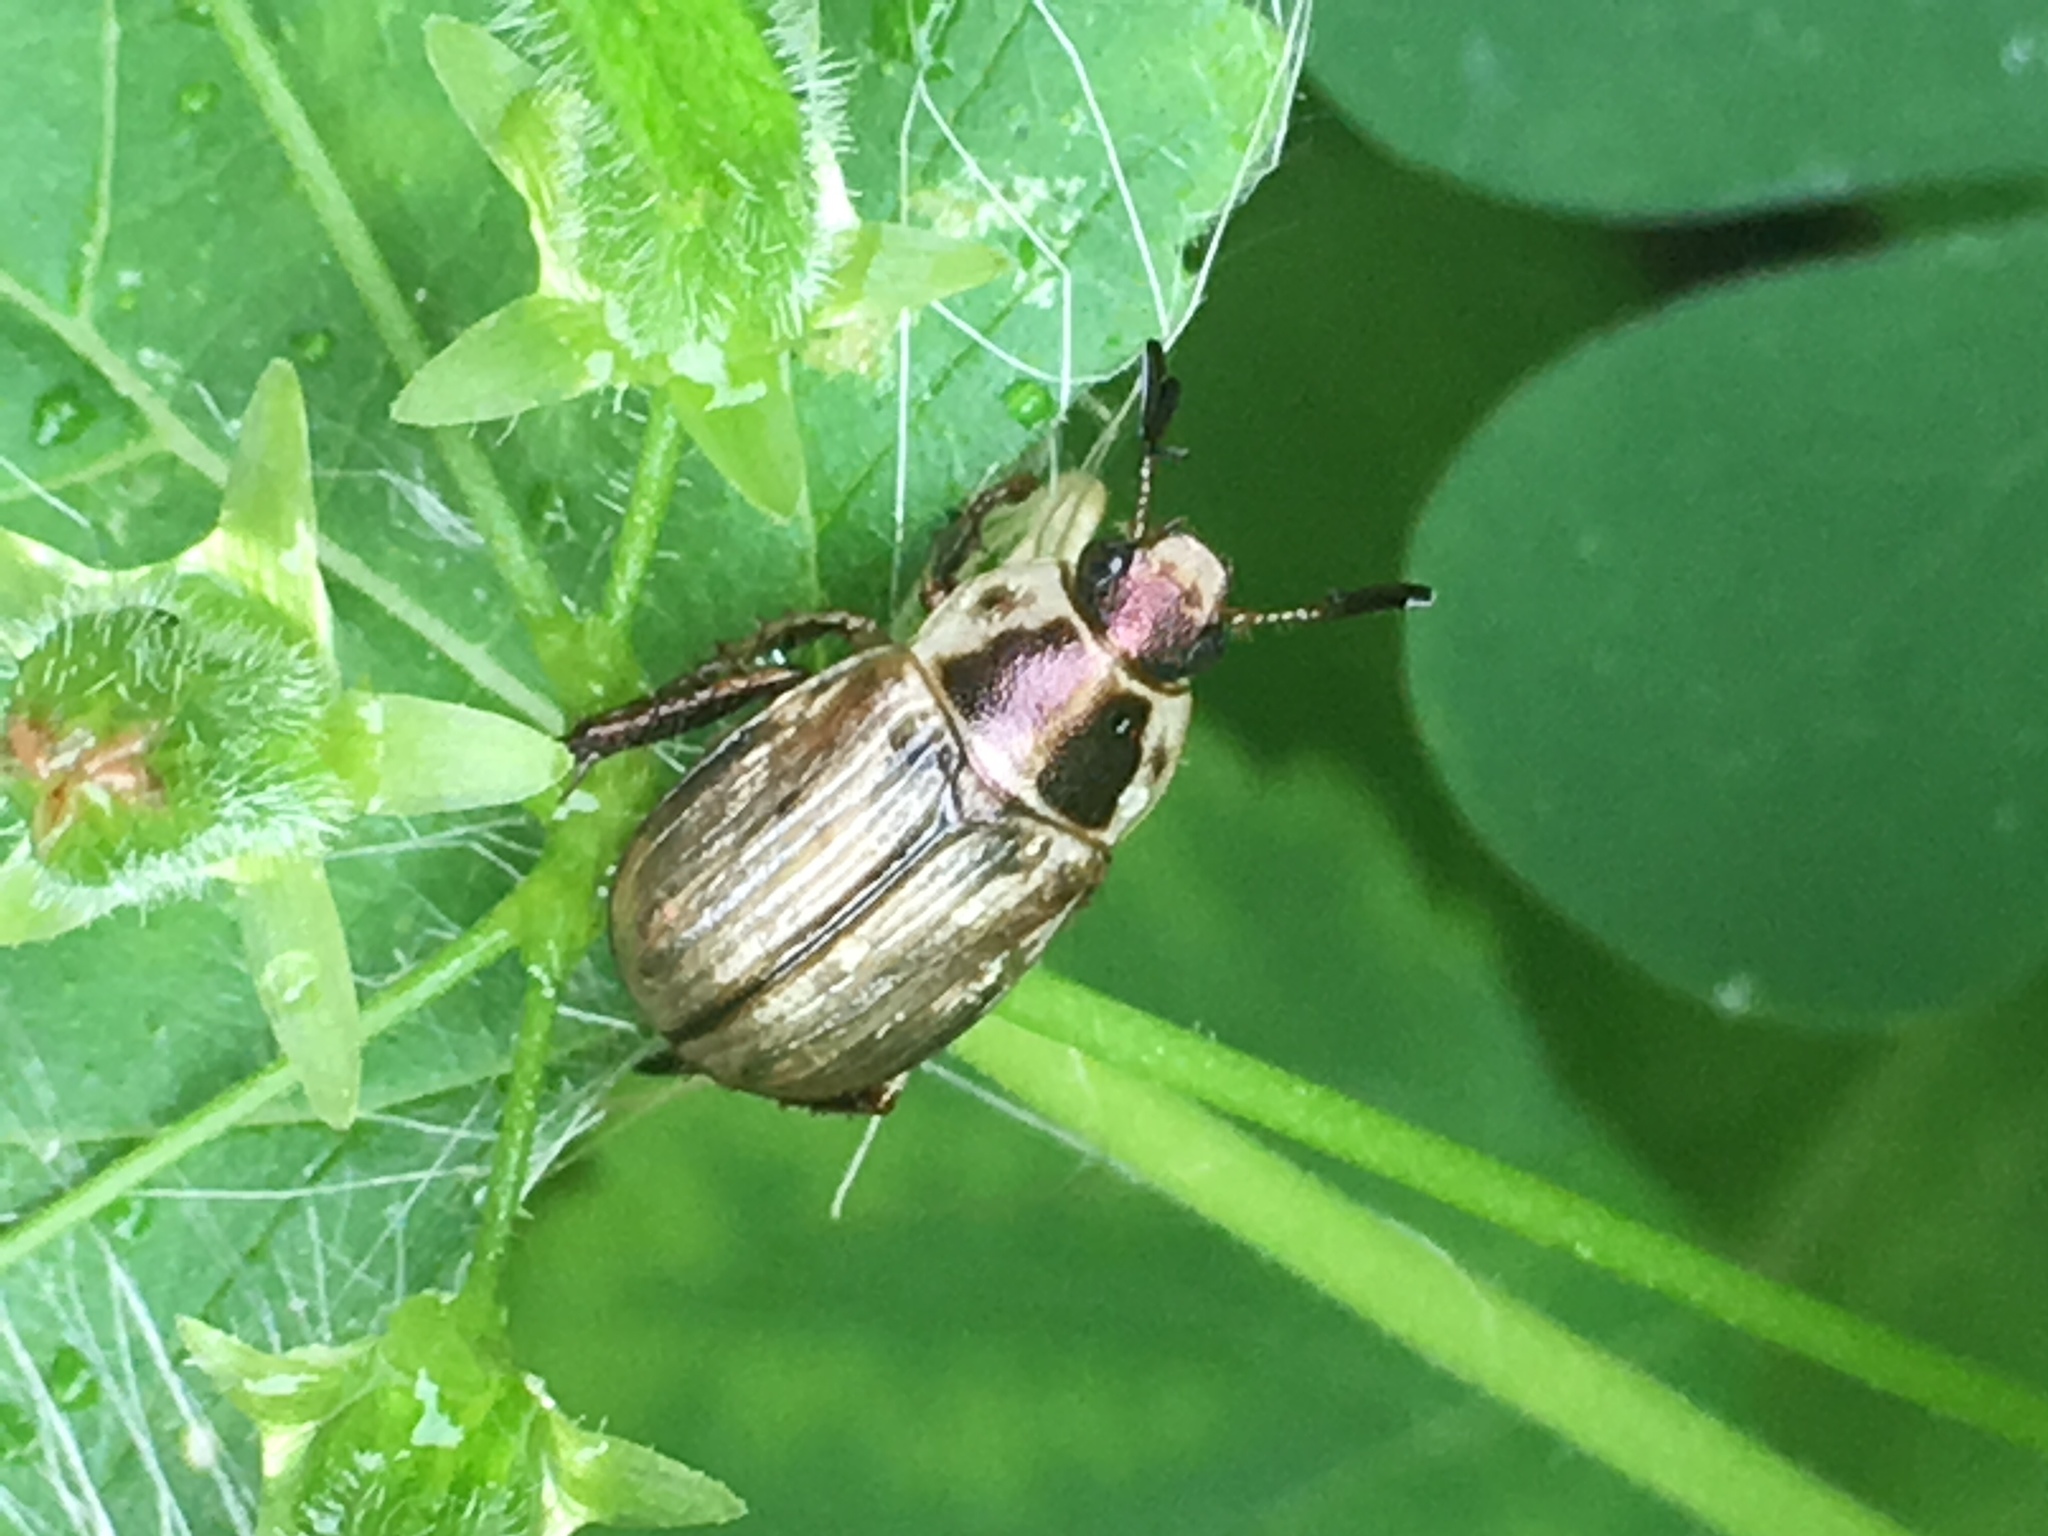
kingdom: Animalia
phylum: Arthropoda
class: Insecta
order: Coleoptera
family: Scarabaeidae
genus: Exomala
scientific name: Exomala orientalis
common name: Oriental beetle
